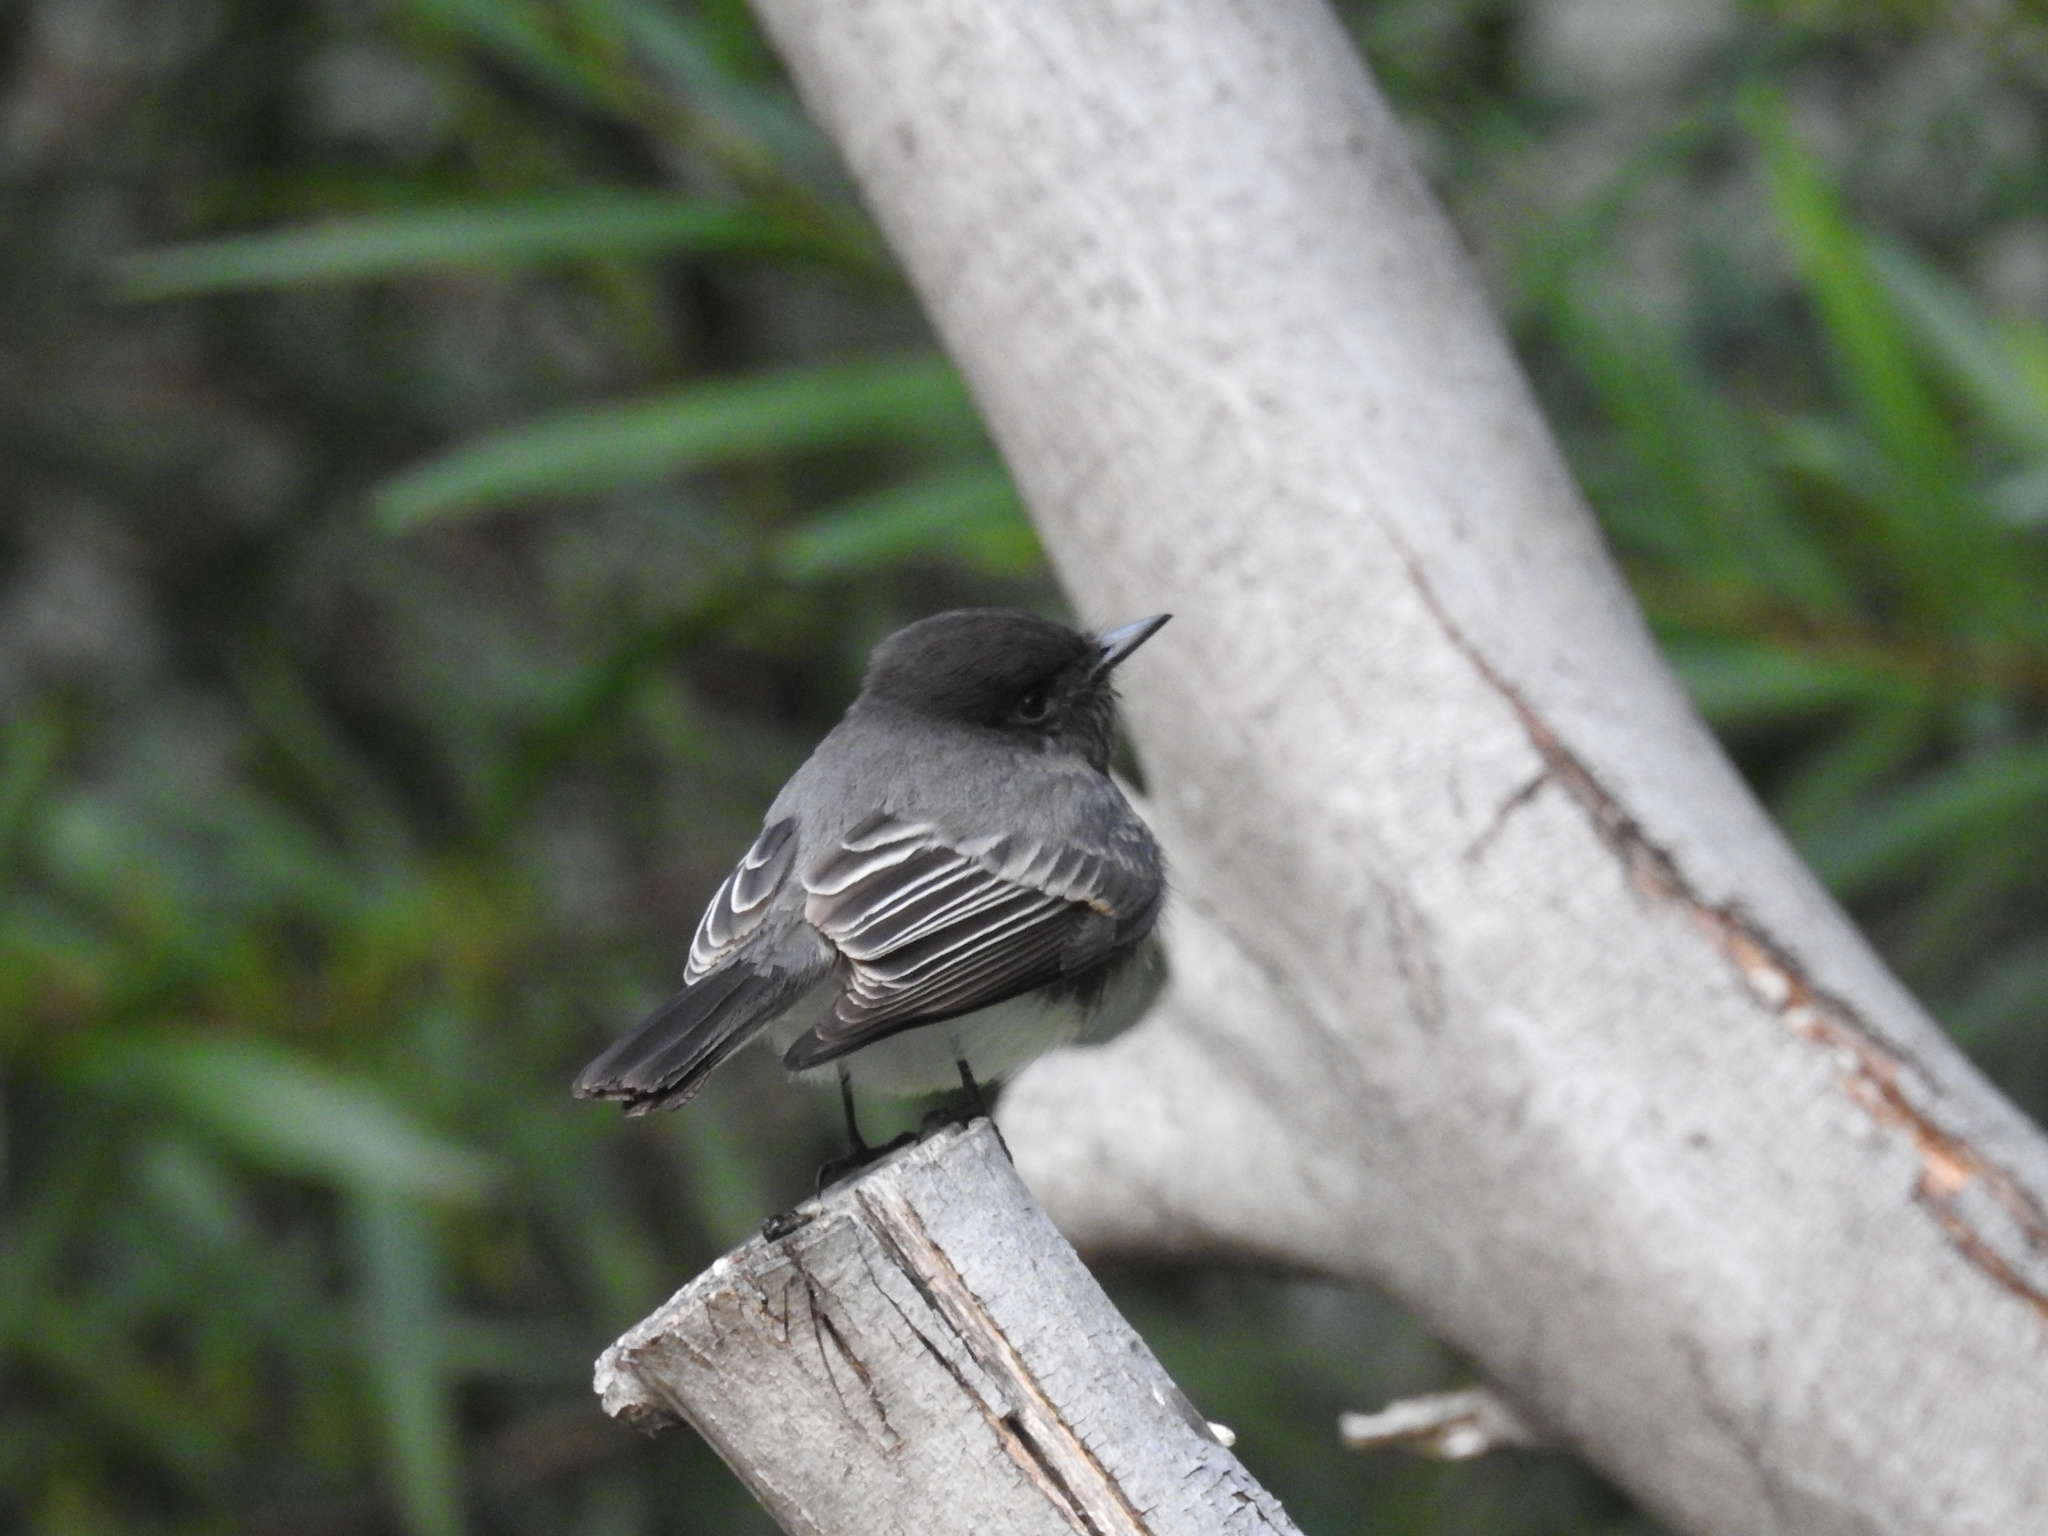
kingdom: Animalia
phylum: Chordata
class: Aves
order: Passeriformes
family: Tyrannidae
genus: Sayornis
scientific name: Sayornis nigricans
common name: Black phoebe
